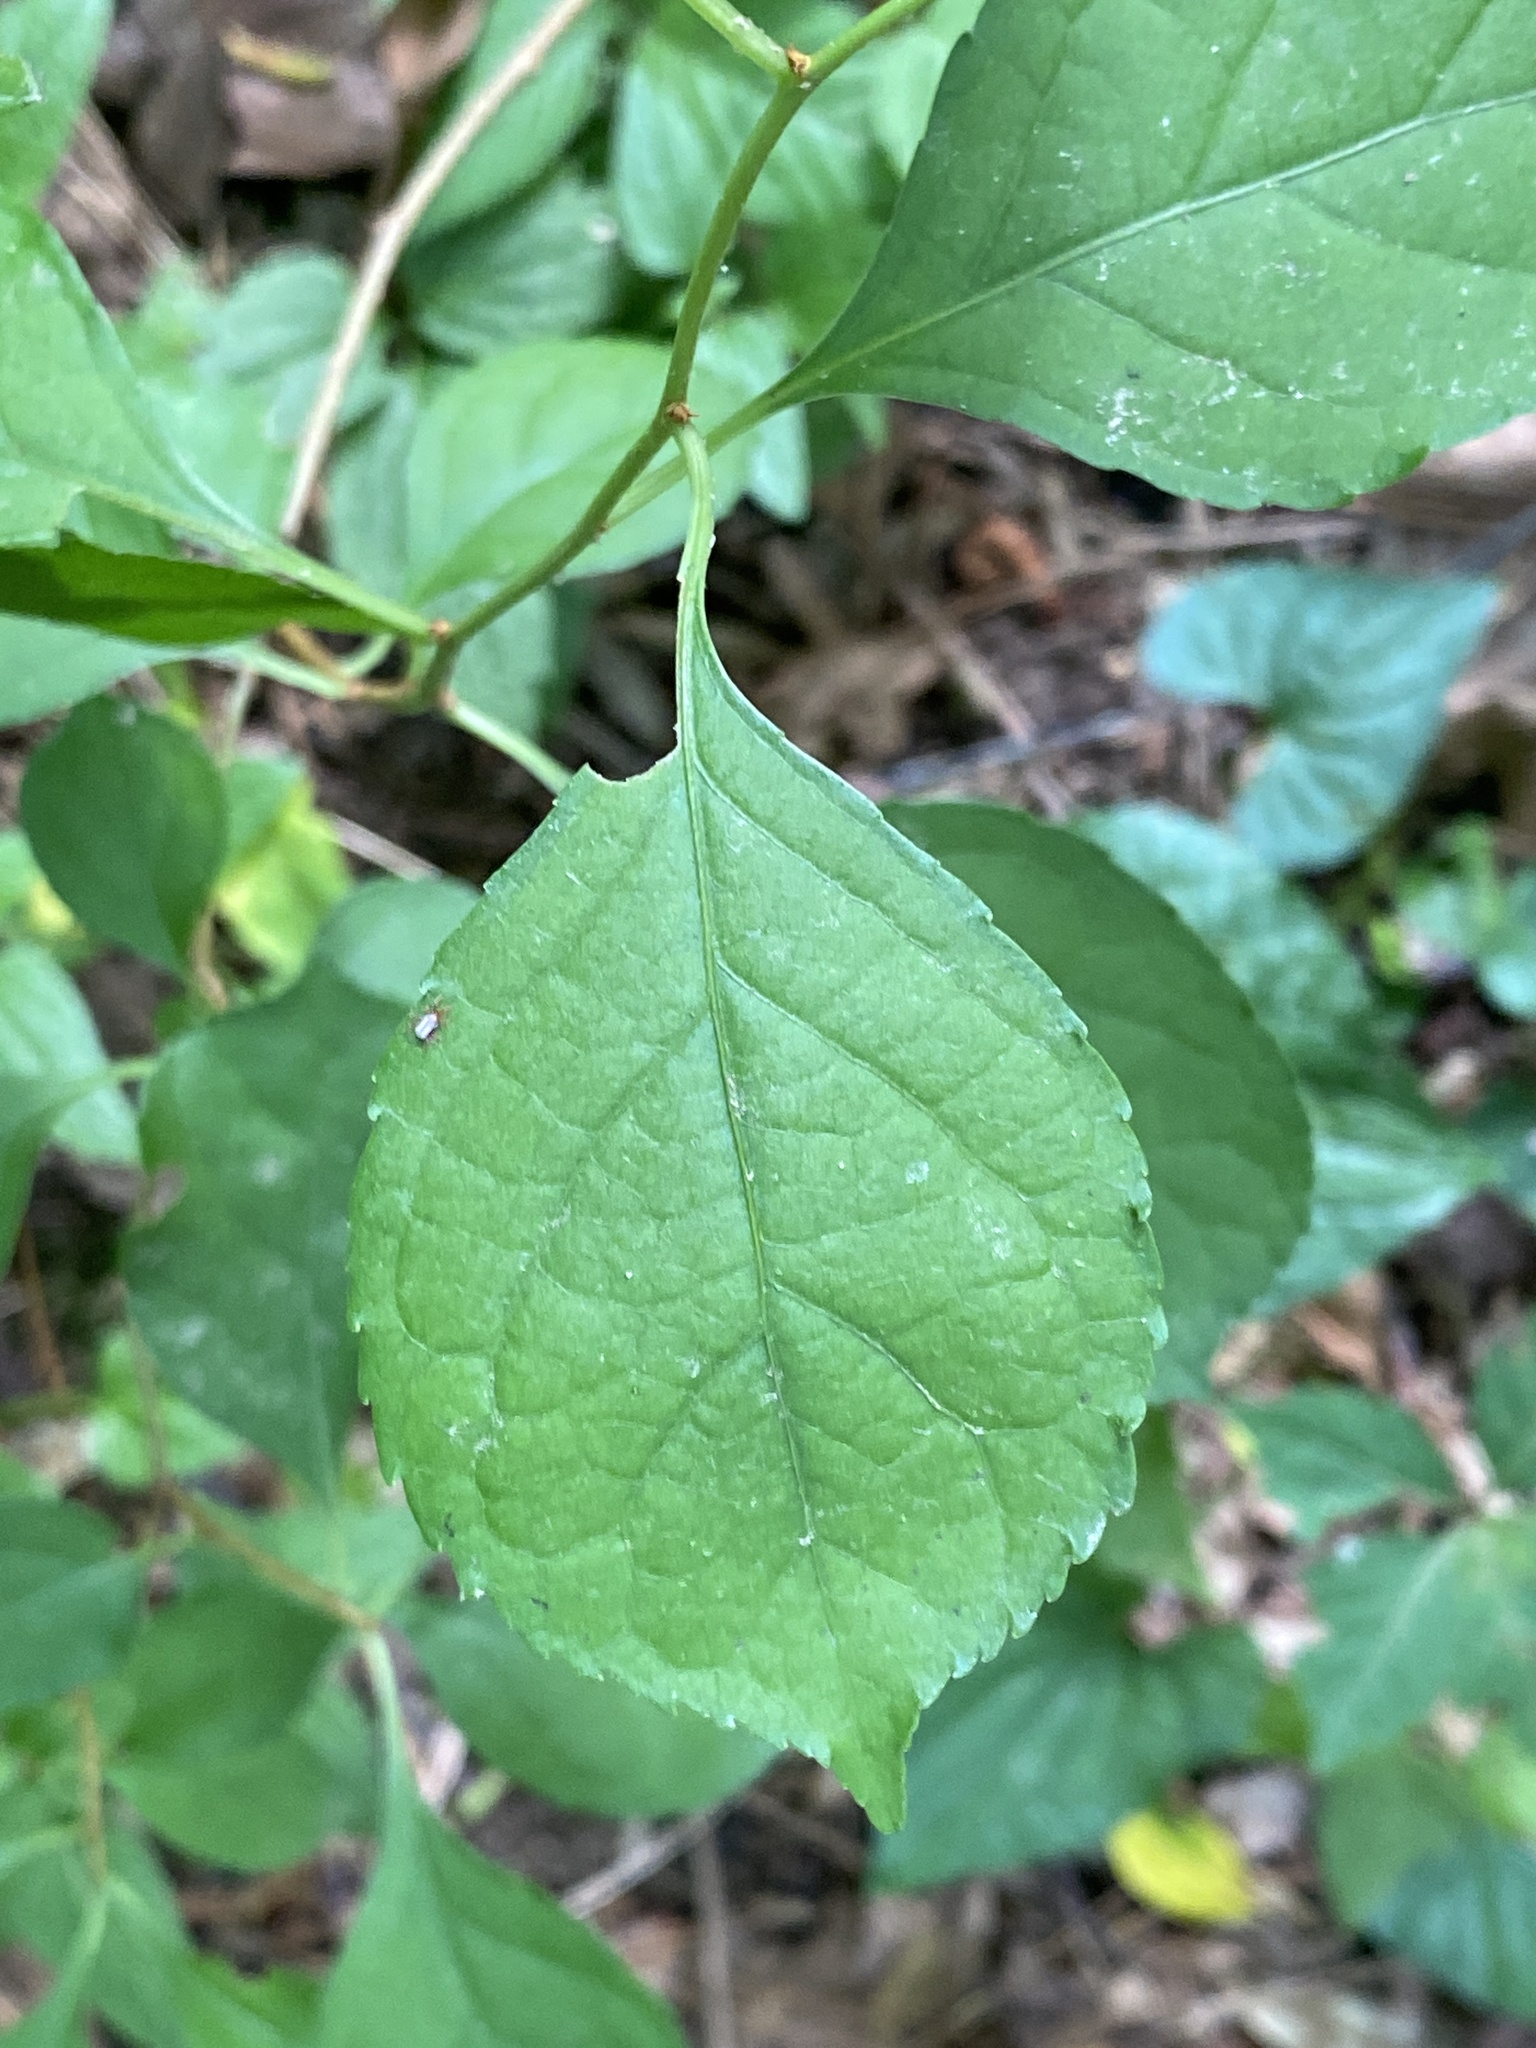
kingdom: Plantae
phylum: Tracheophyta
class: Magnoliopsida
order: Celastrales
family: Celastraceae
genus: Celastrus
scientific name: Celastrus orbiculatus
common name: Oriental bittersweet
